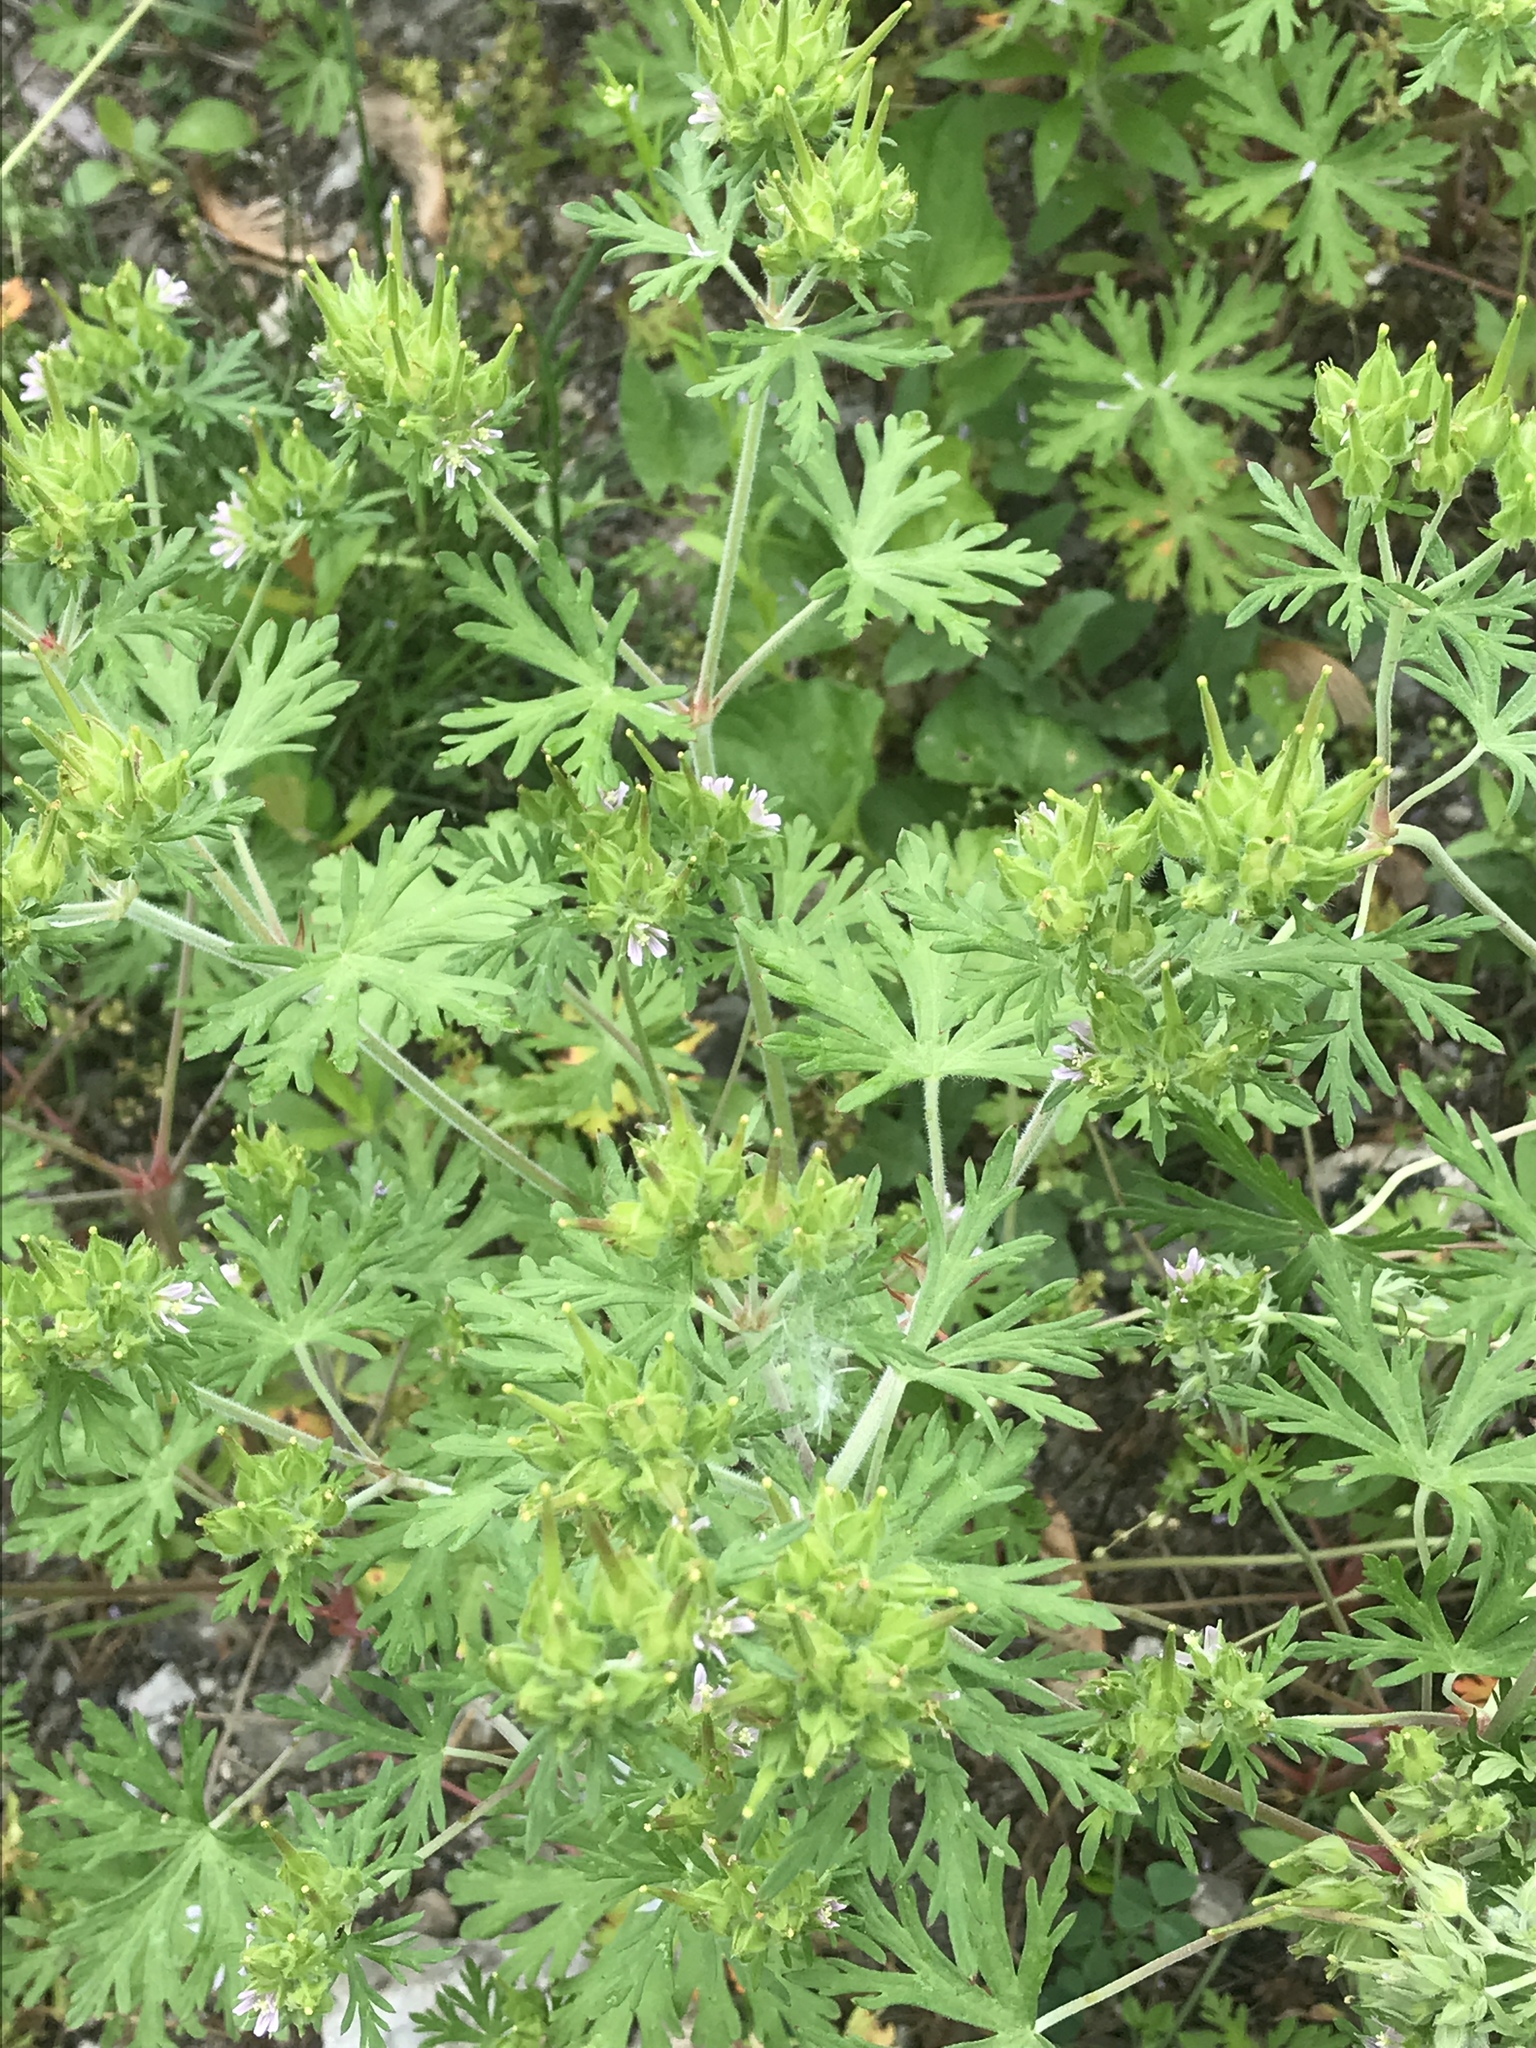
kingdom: Plantae
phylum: Tracheophyta
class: Magnoliopsida
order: Geraniales
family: Geraniaceae
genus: Geranium
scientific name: Geranium carolinianum
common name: Carolina crane's-bill
